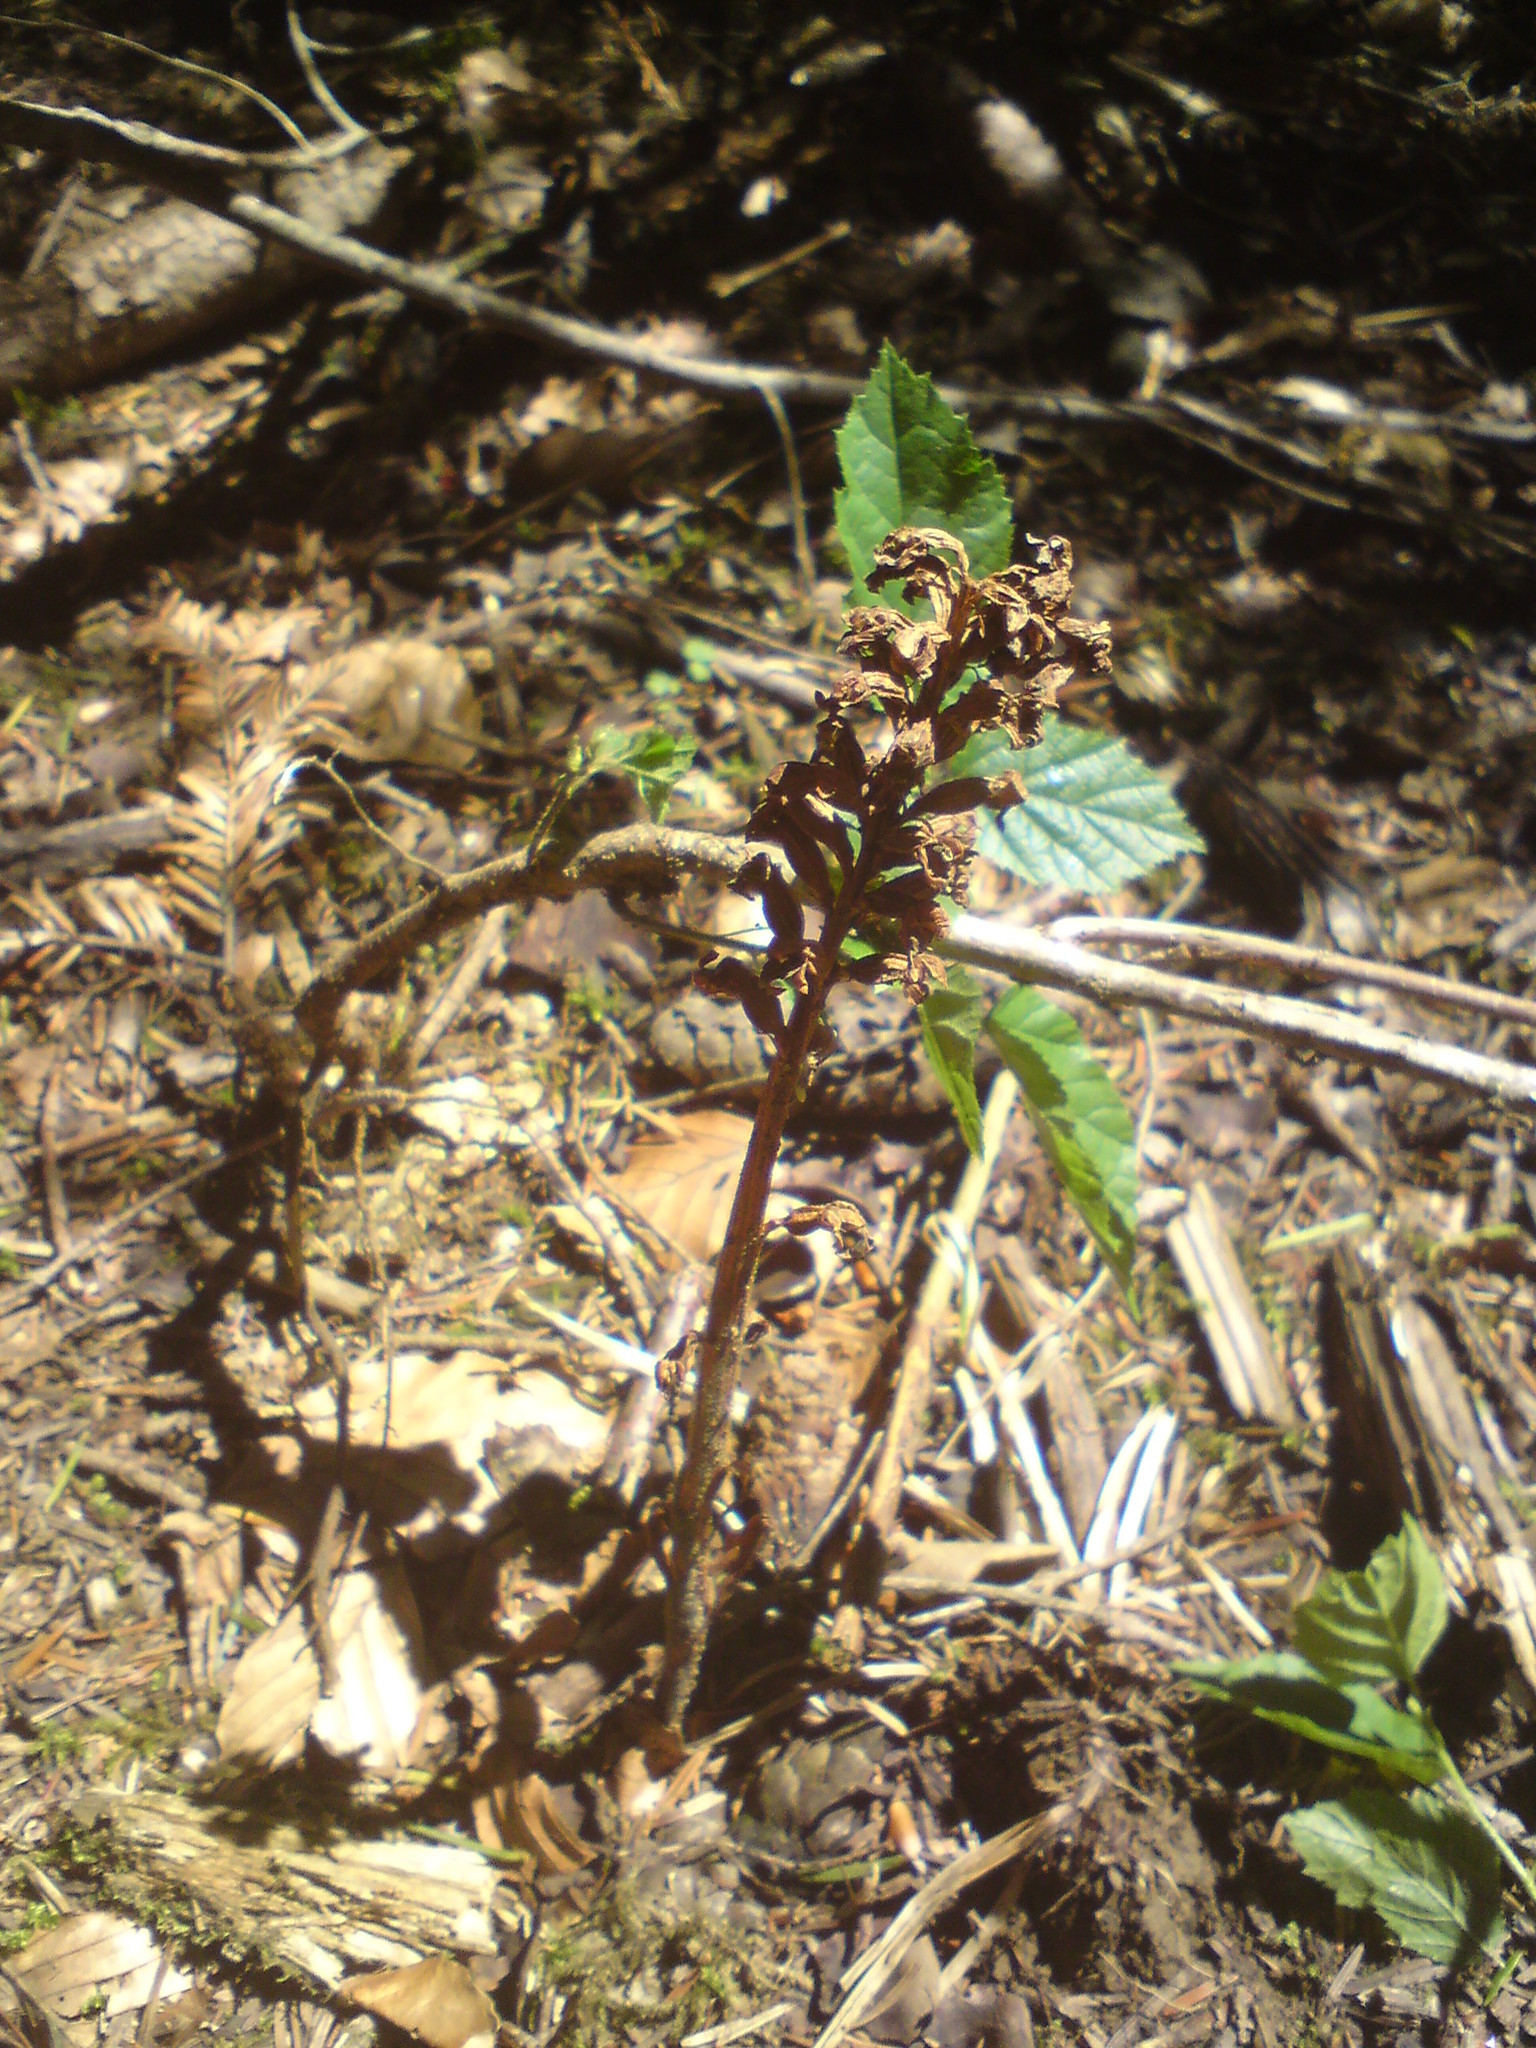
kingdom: Plantae
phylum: Tracheophyta
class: Liliopsida
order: Asparagales
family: Orchidaceae
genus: Neottia
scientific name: Neottia nidus-avis
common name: Bird's-nest orchid
